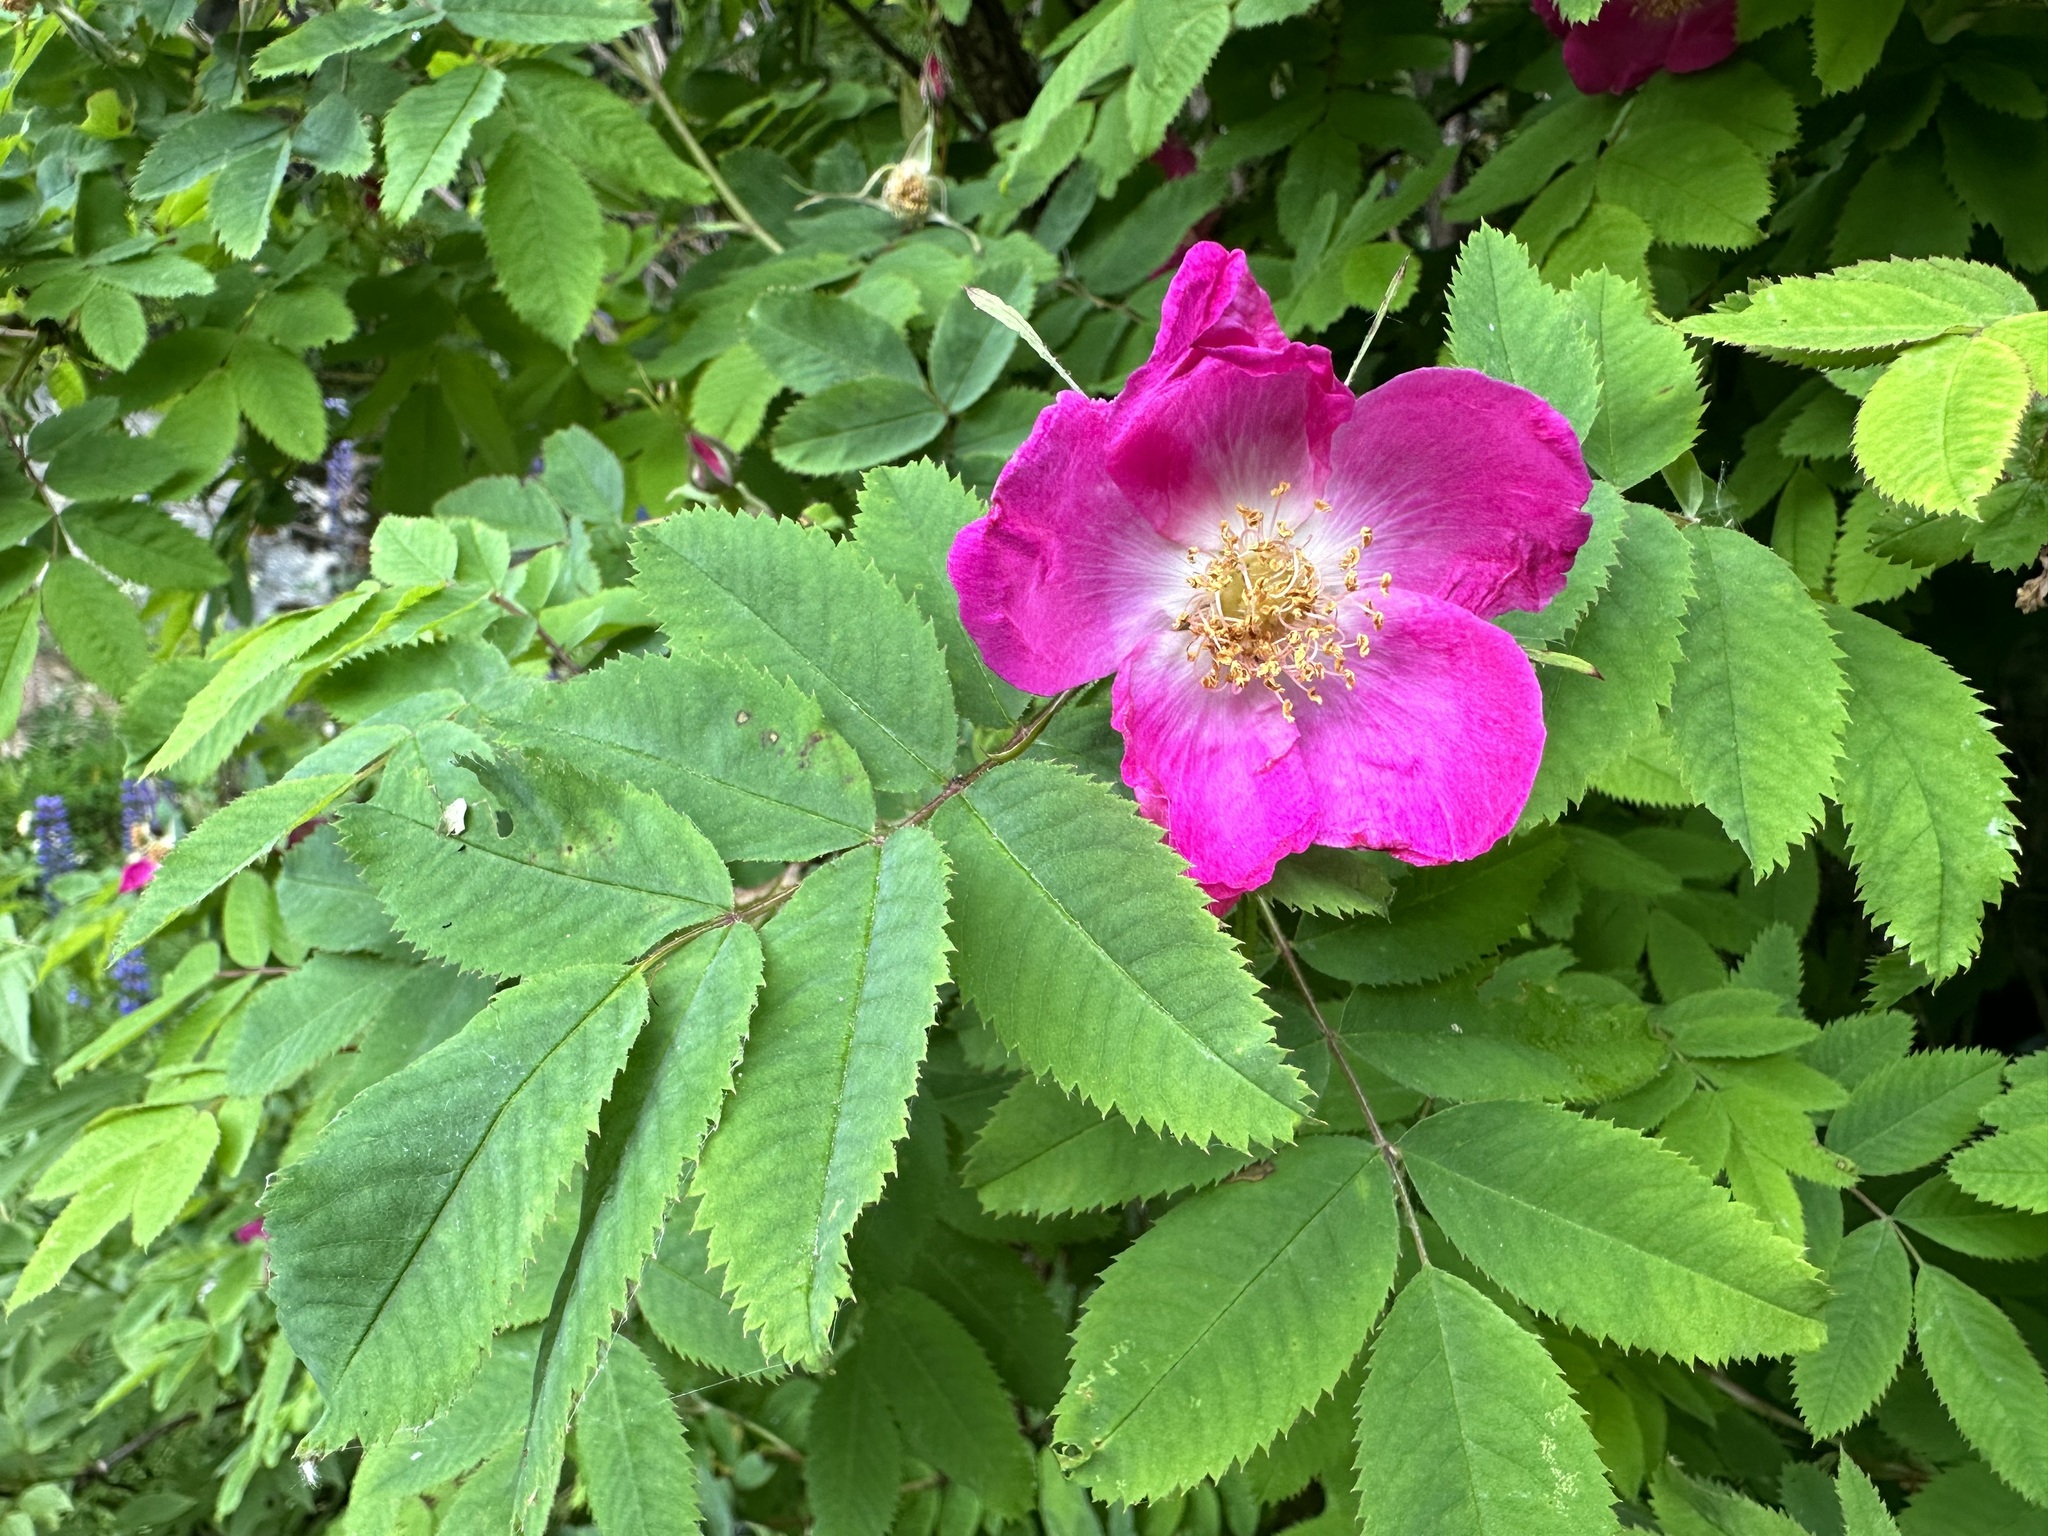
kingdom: Plantae
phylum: Tracheophyta
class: Magnoliopsida
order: Rosales
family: Rosaceae
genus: Rosa
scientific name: Rosa pendulina
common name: Alpine rose
